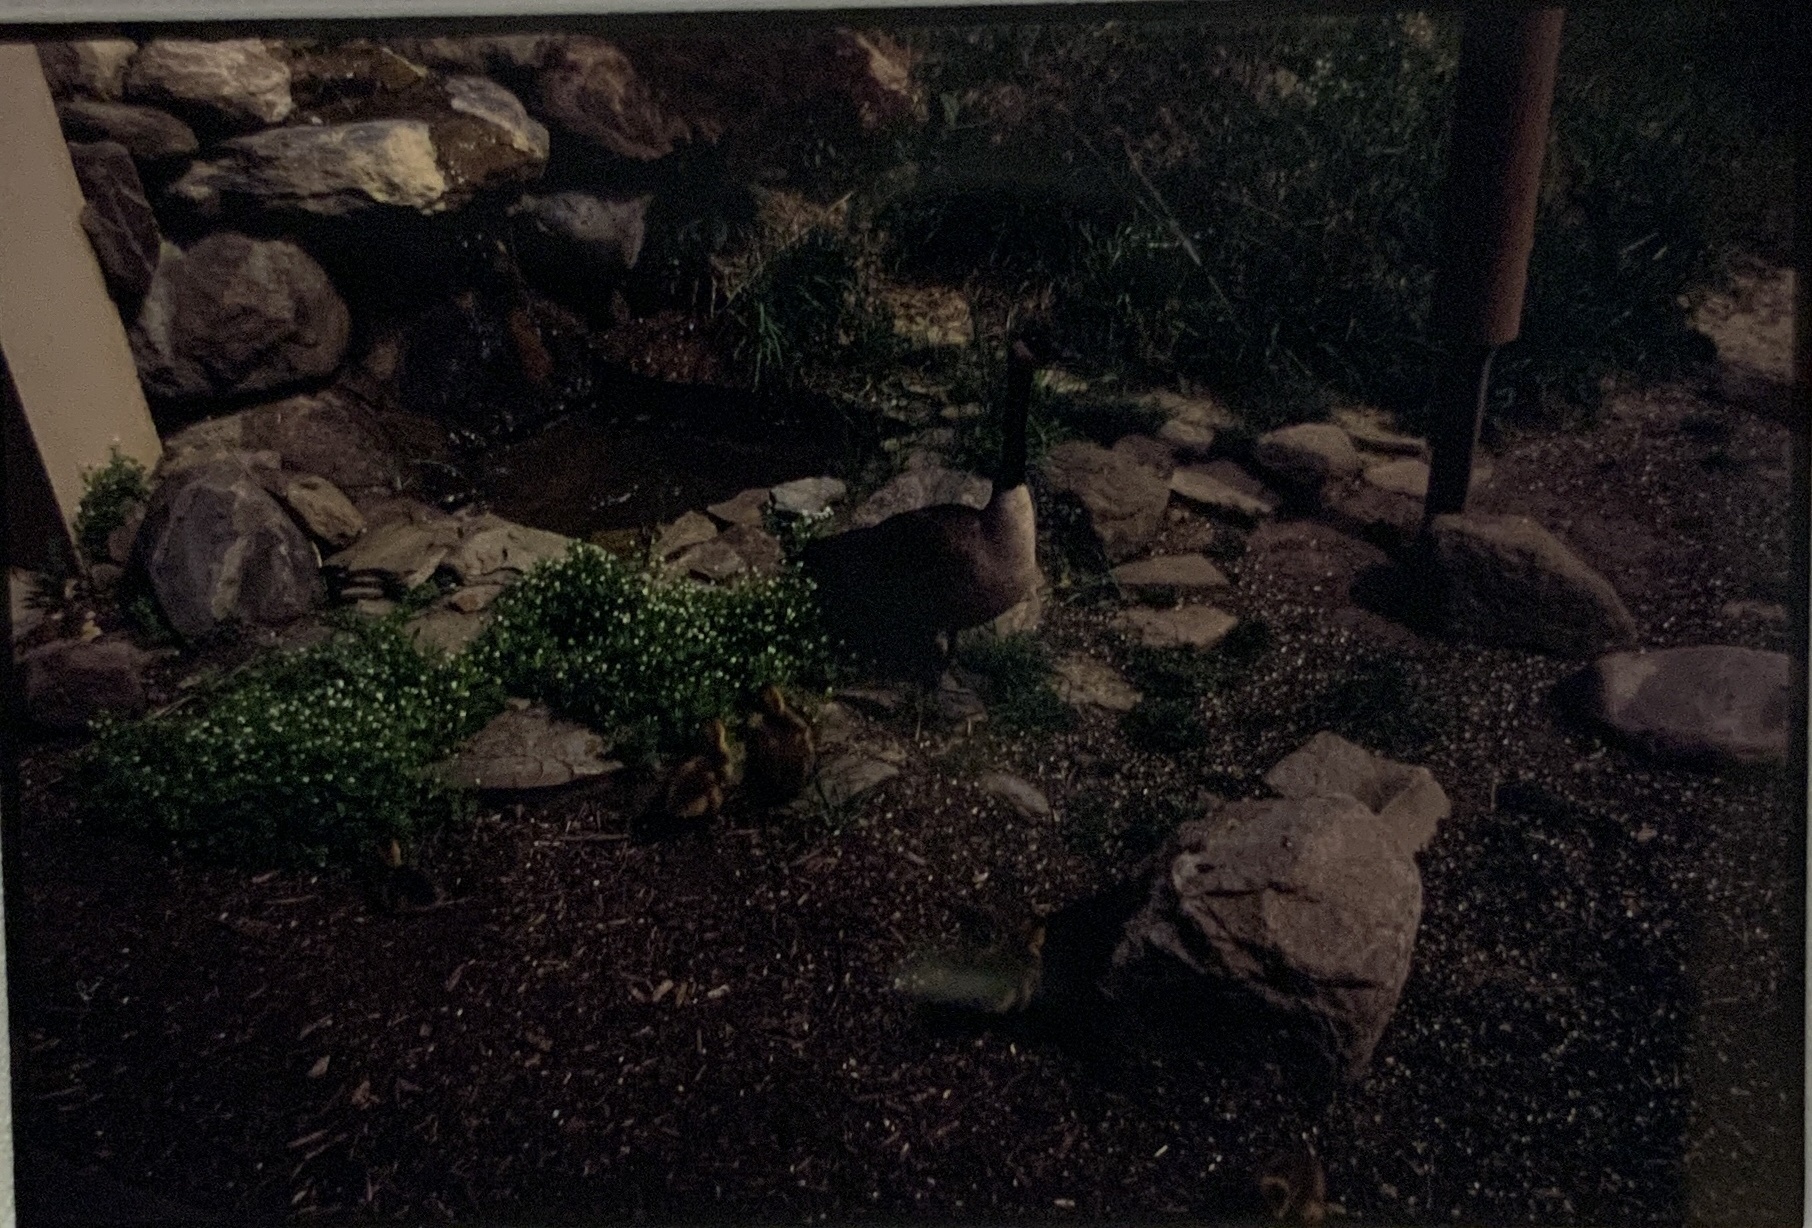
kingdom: Animalia
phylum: Chordata
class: Aves
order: Anseriformes
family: Anatidae
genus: Branta
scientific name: Branta canadensis
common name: Canada goose
